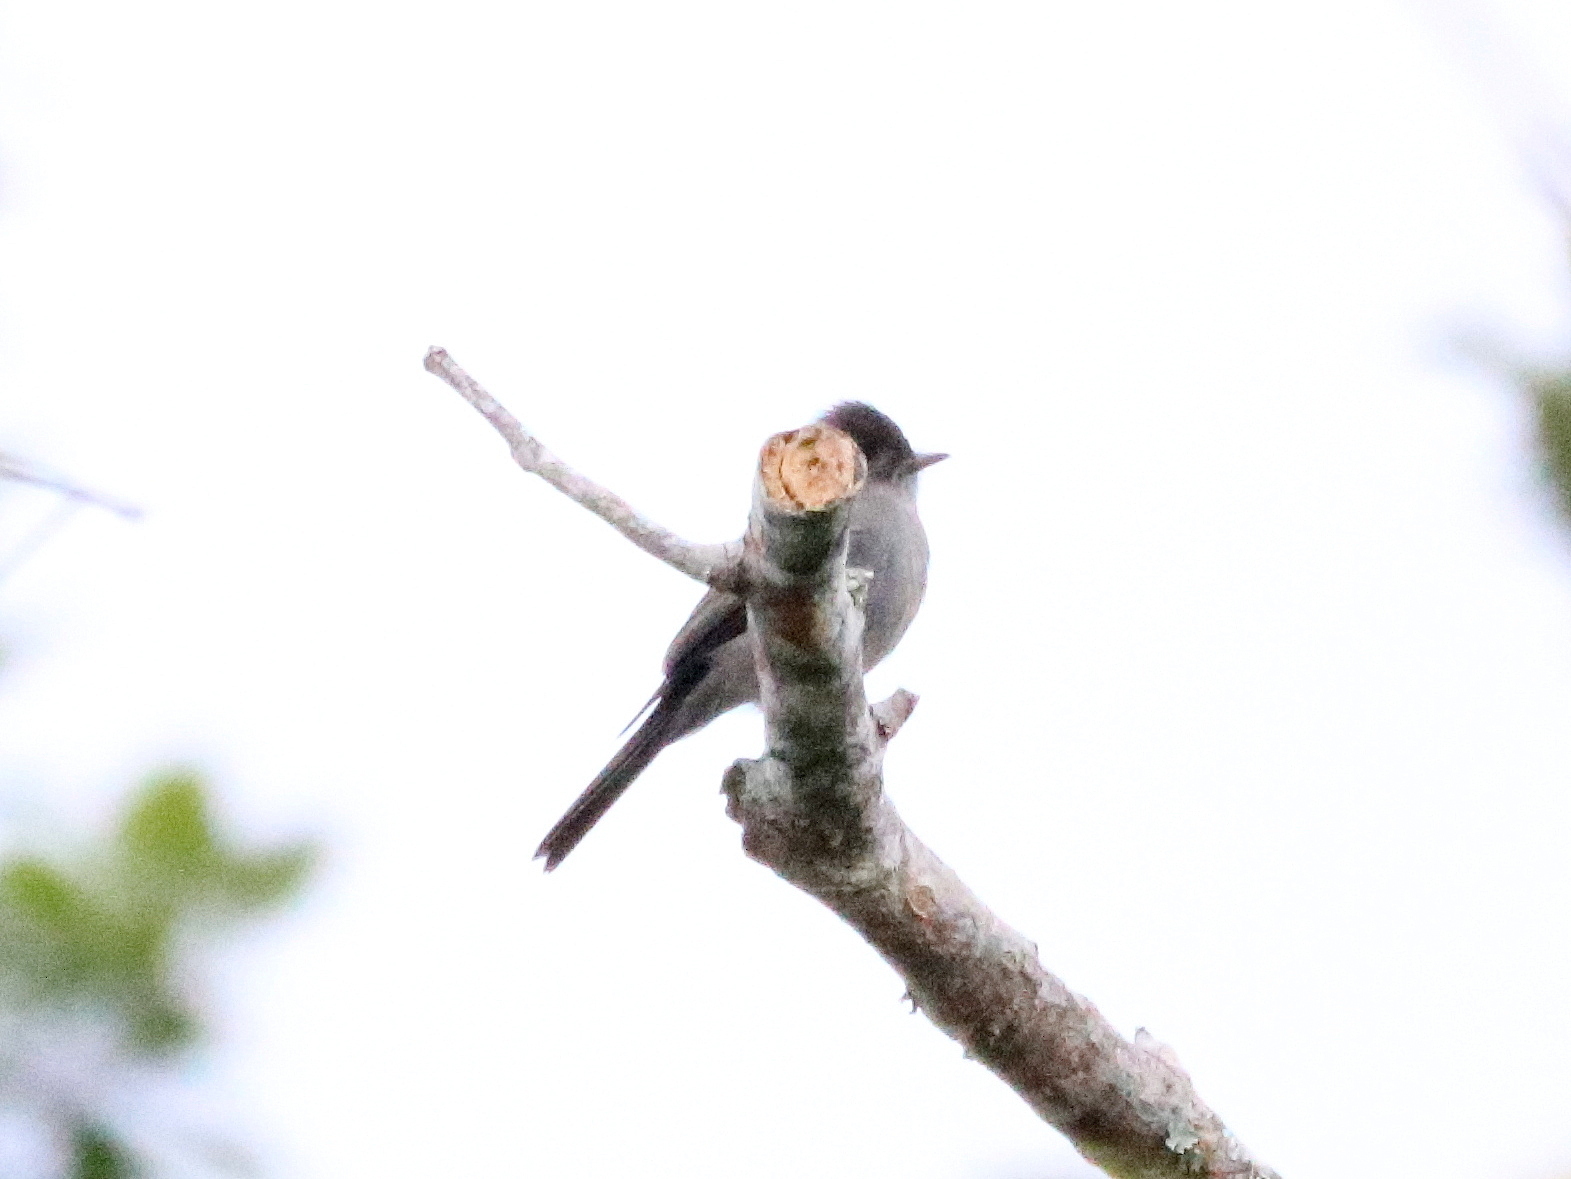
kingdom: Animalia
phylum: Chordata
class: Aves
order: Passeriformes
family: Tyrannidae
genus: Contopus
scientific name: Contopus cinereus
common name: Tropical pewee
